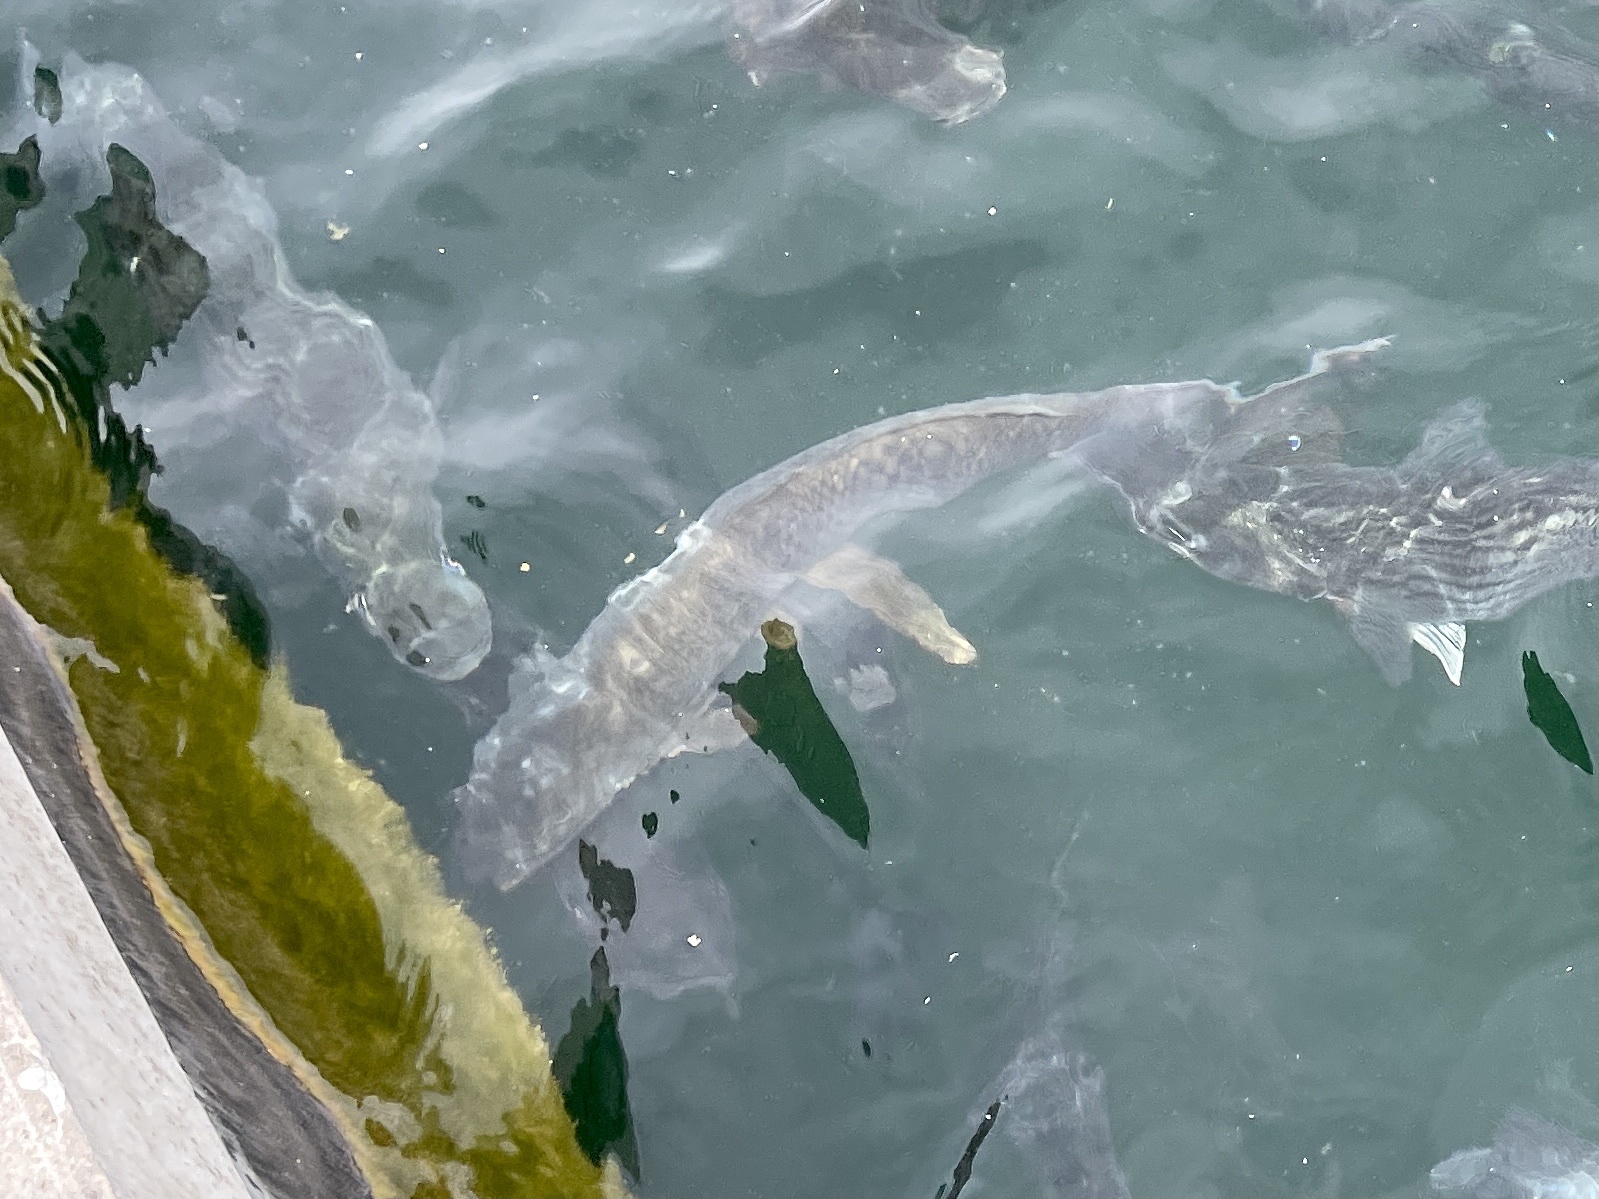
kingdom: Animalia
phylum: Chordata
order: Cypriniformes
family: Cyprinidae
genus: Cyprinus
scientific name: Cyprinus carpio
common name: Common carp
